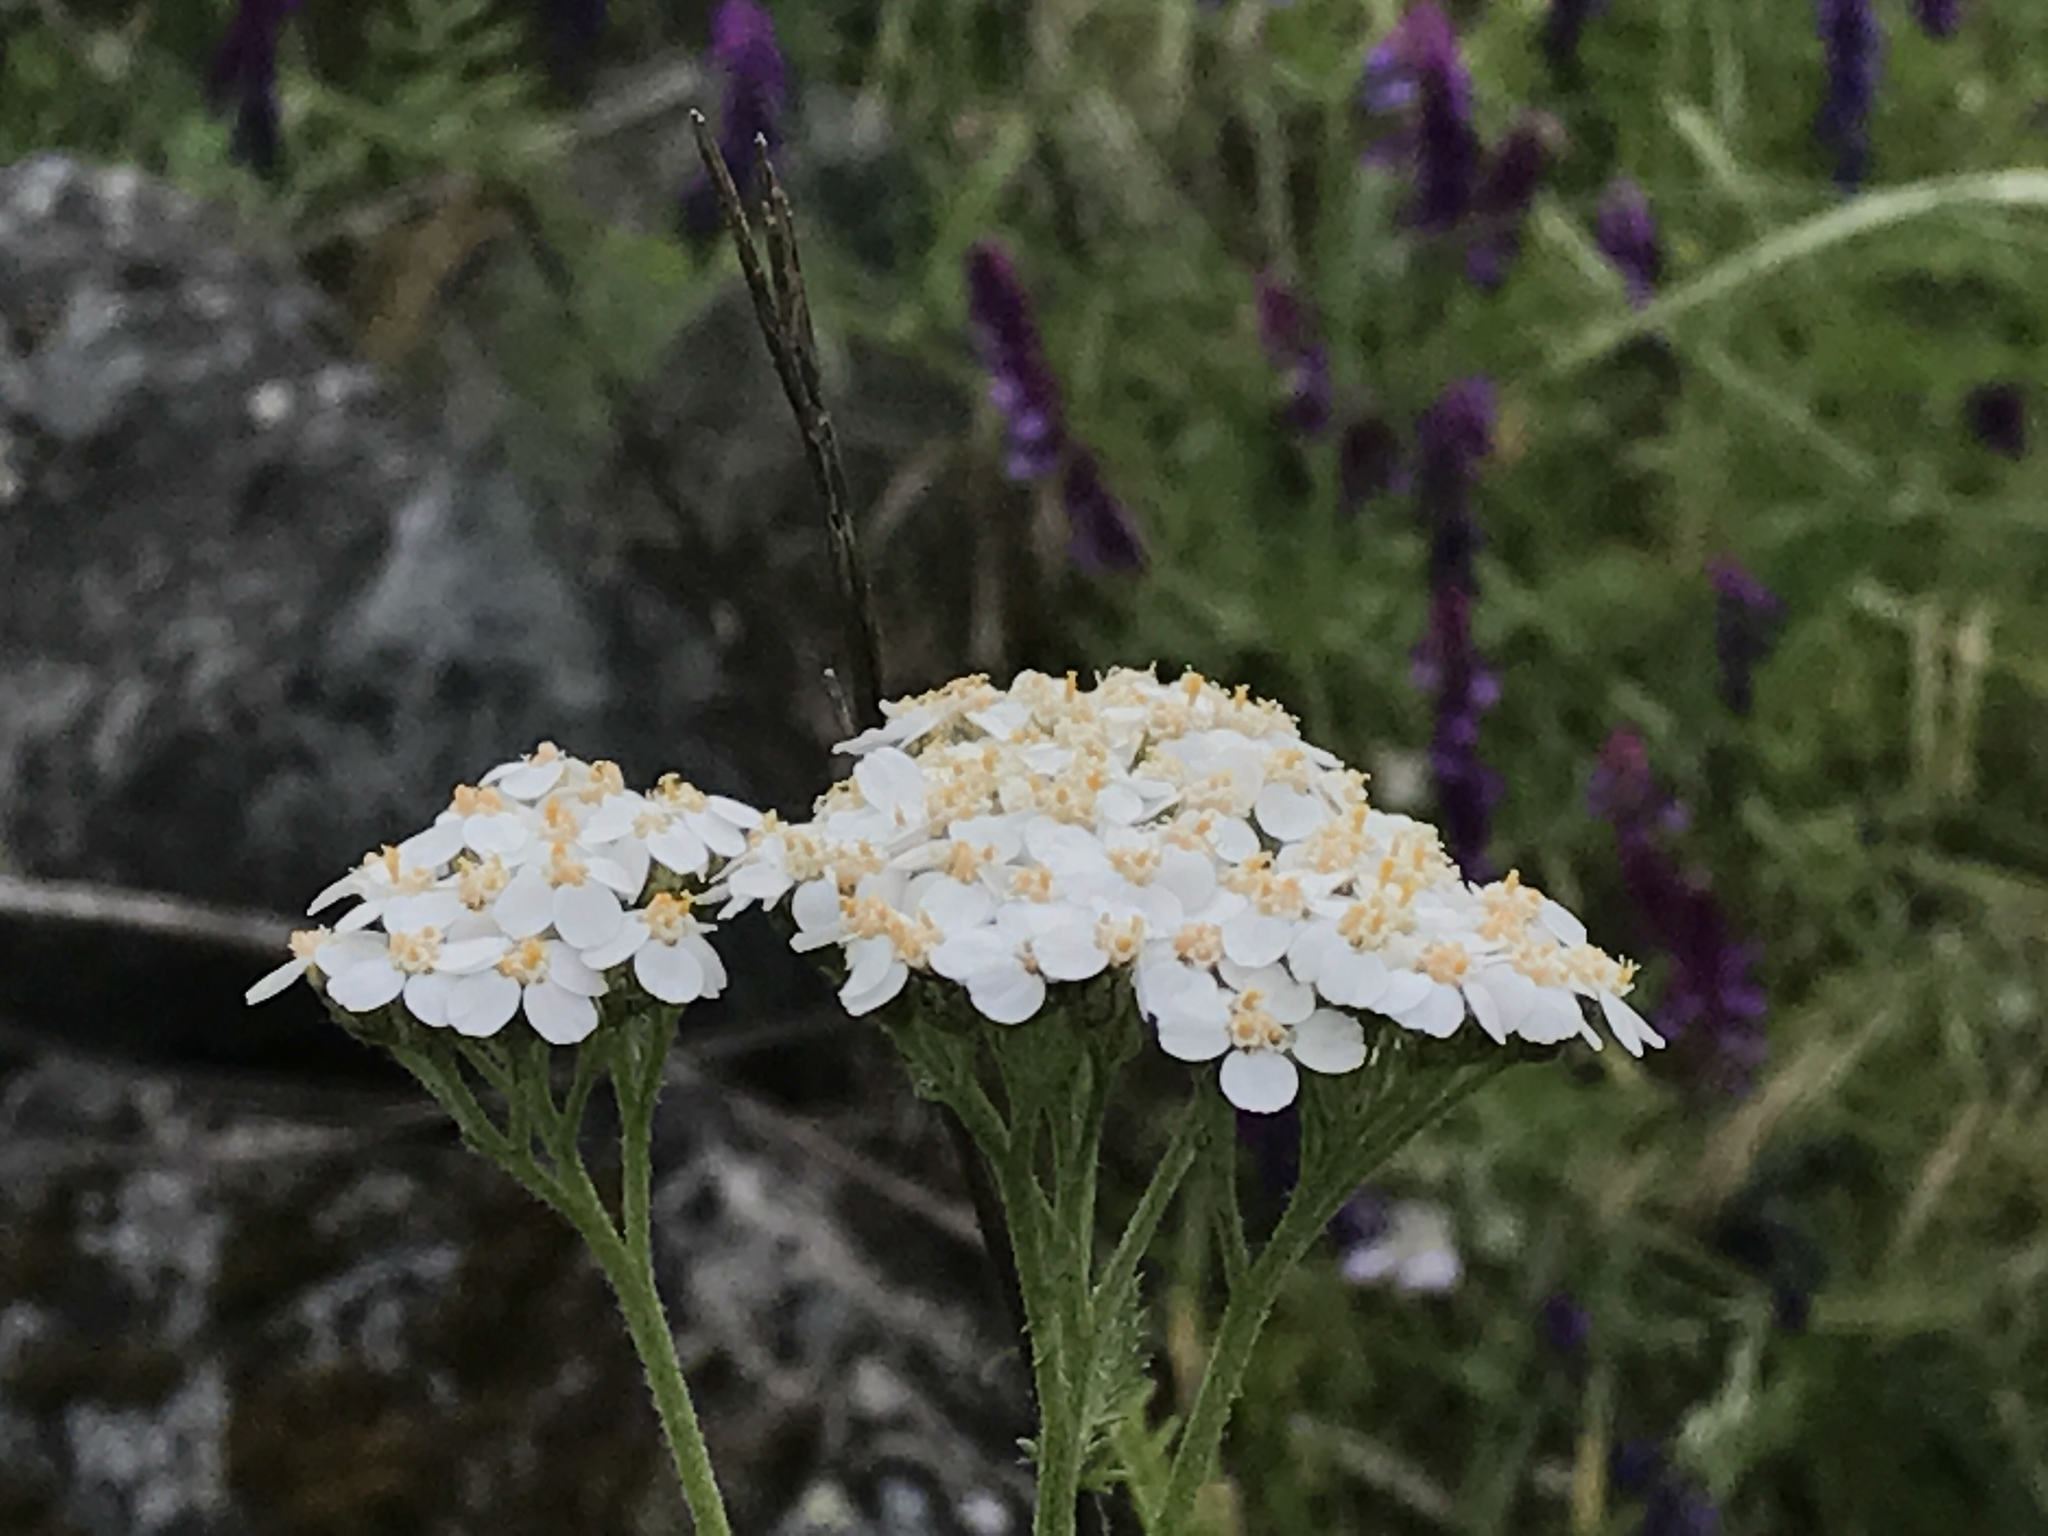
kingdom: Plantae
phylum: Tracheophyta
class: Magnoliopsida
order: Asterales
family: Asteraceae
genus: Achillea
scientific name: Achillea millefolium
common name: Yarrow
